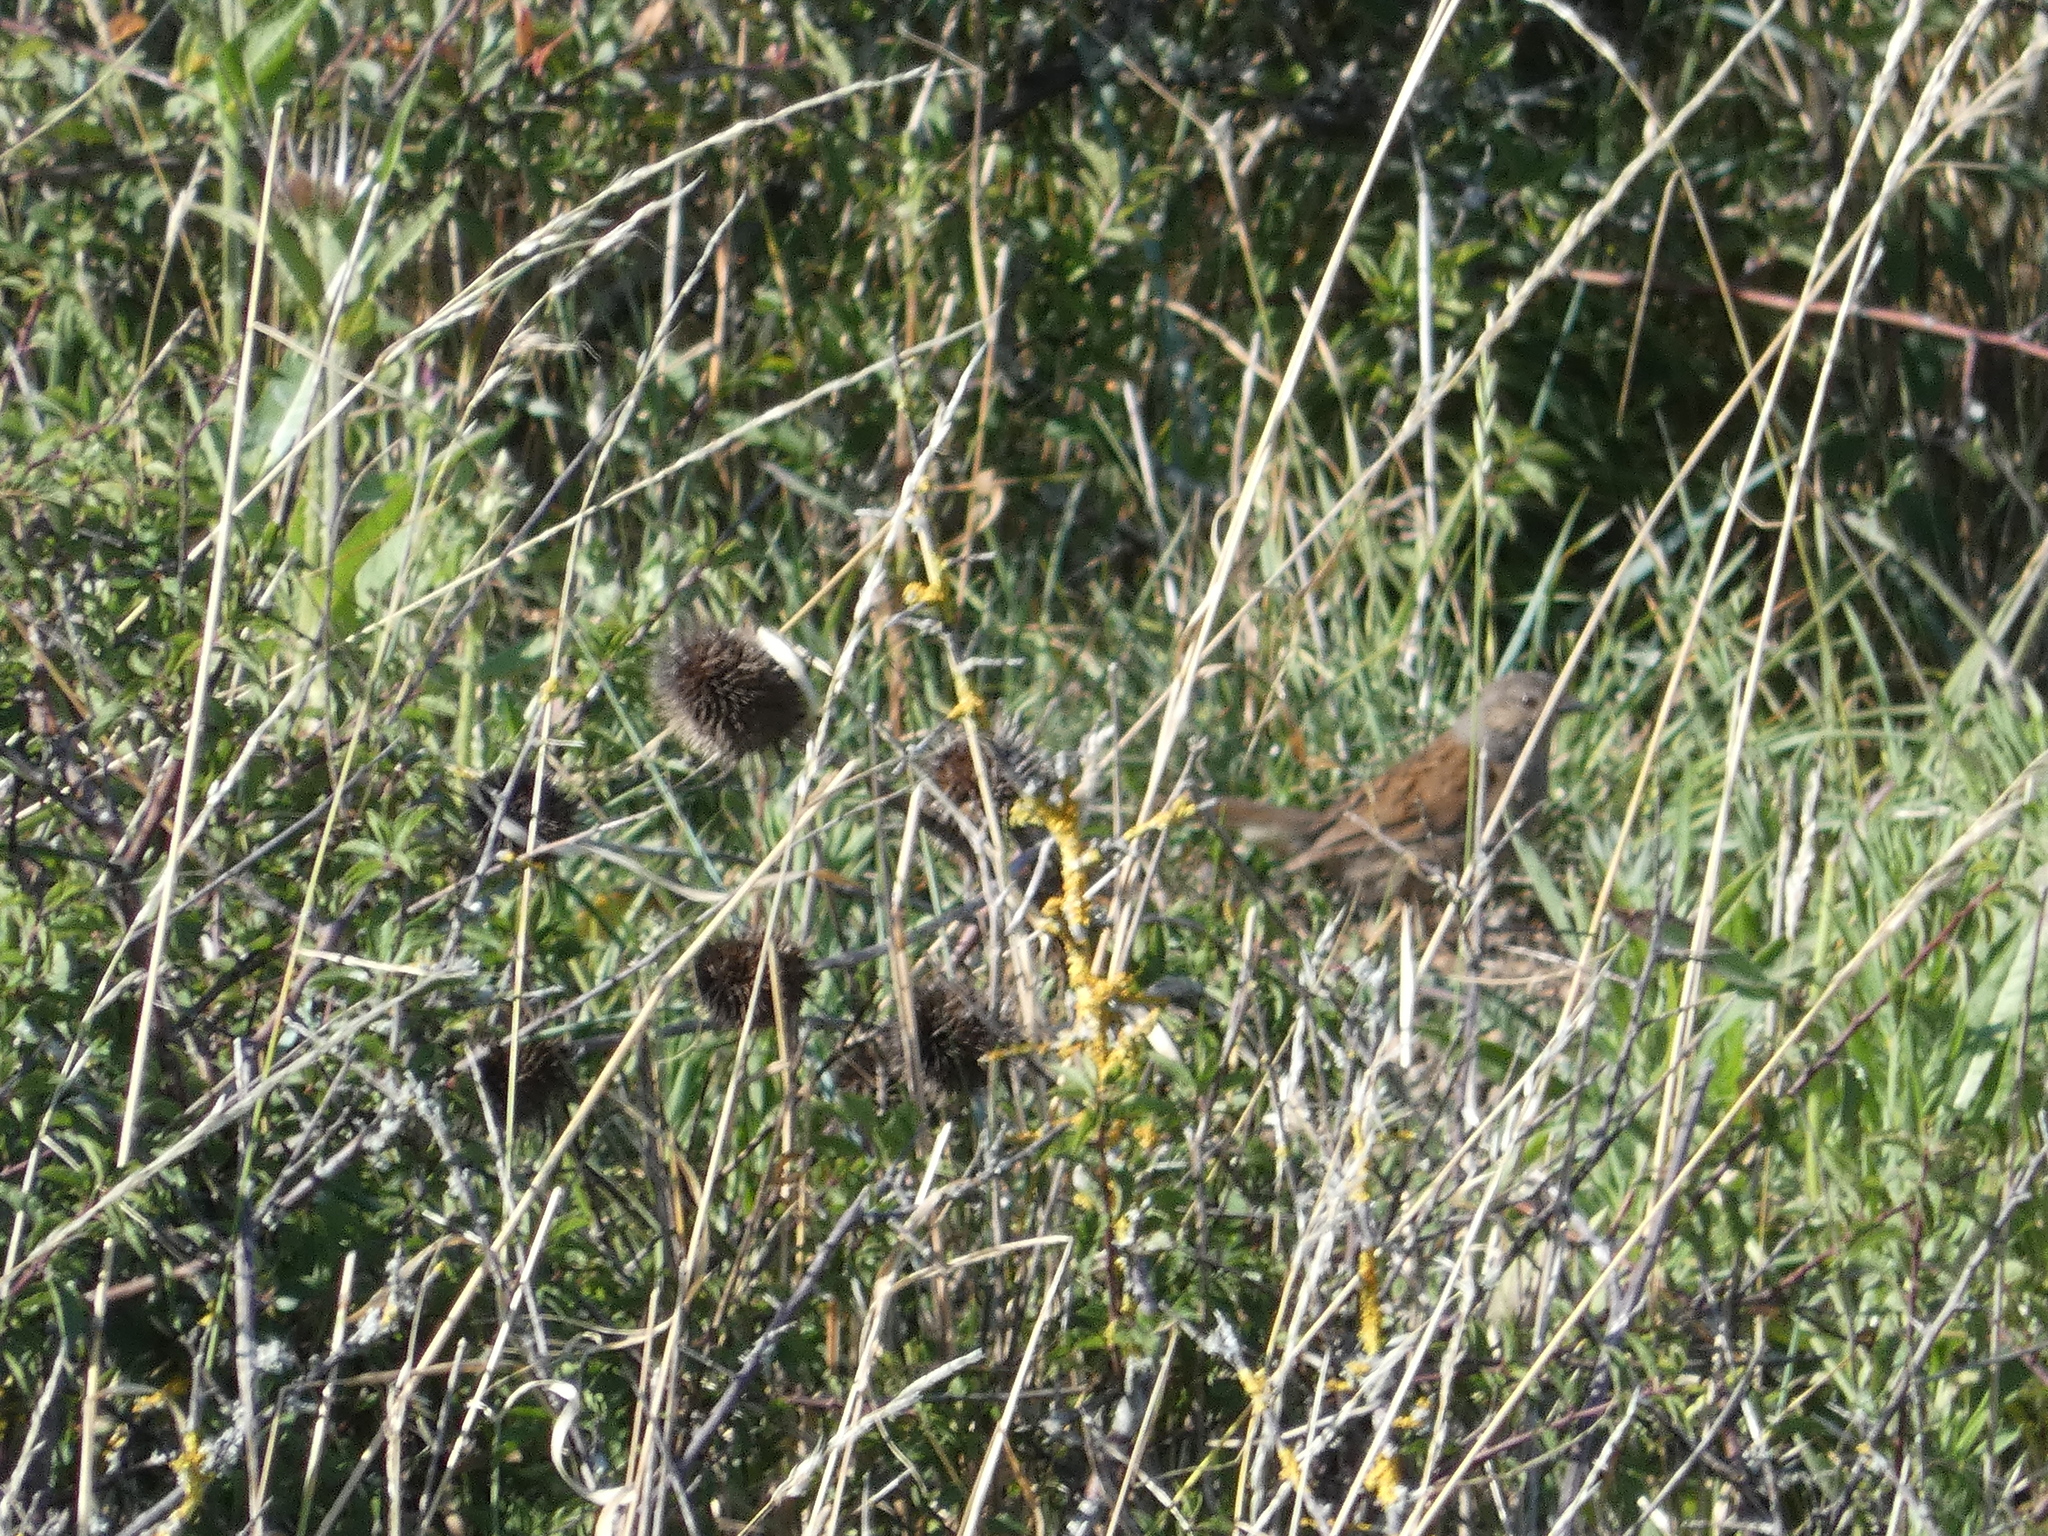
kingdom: Animalia
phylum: Chordata
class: Aves
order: Passeriformes
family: Prunellidae
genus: Prunella
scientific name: Prunella modularis
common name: Dunnock
